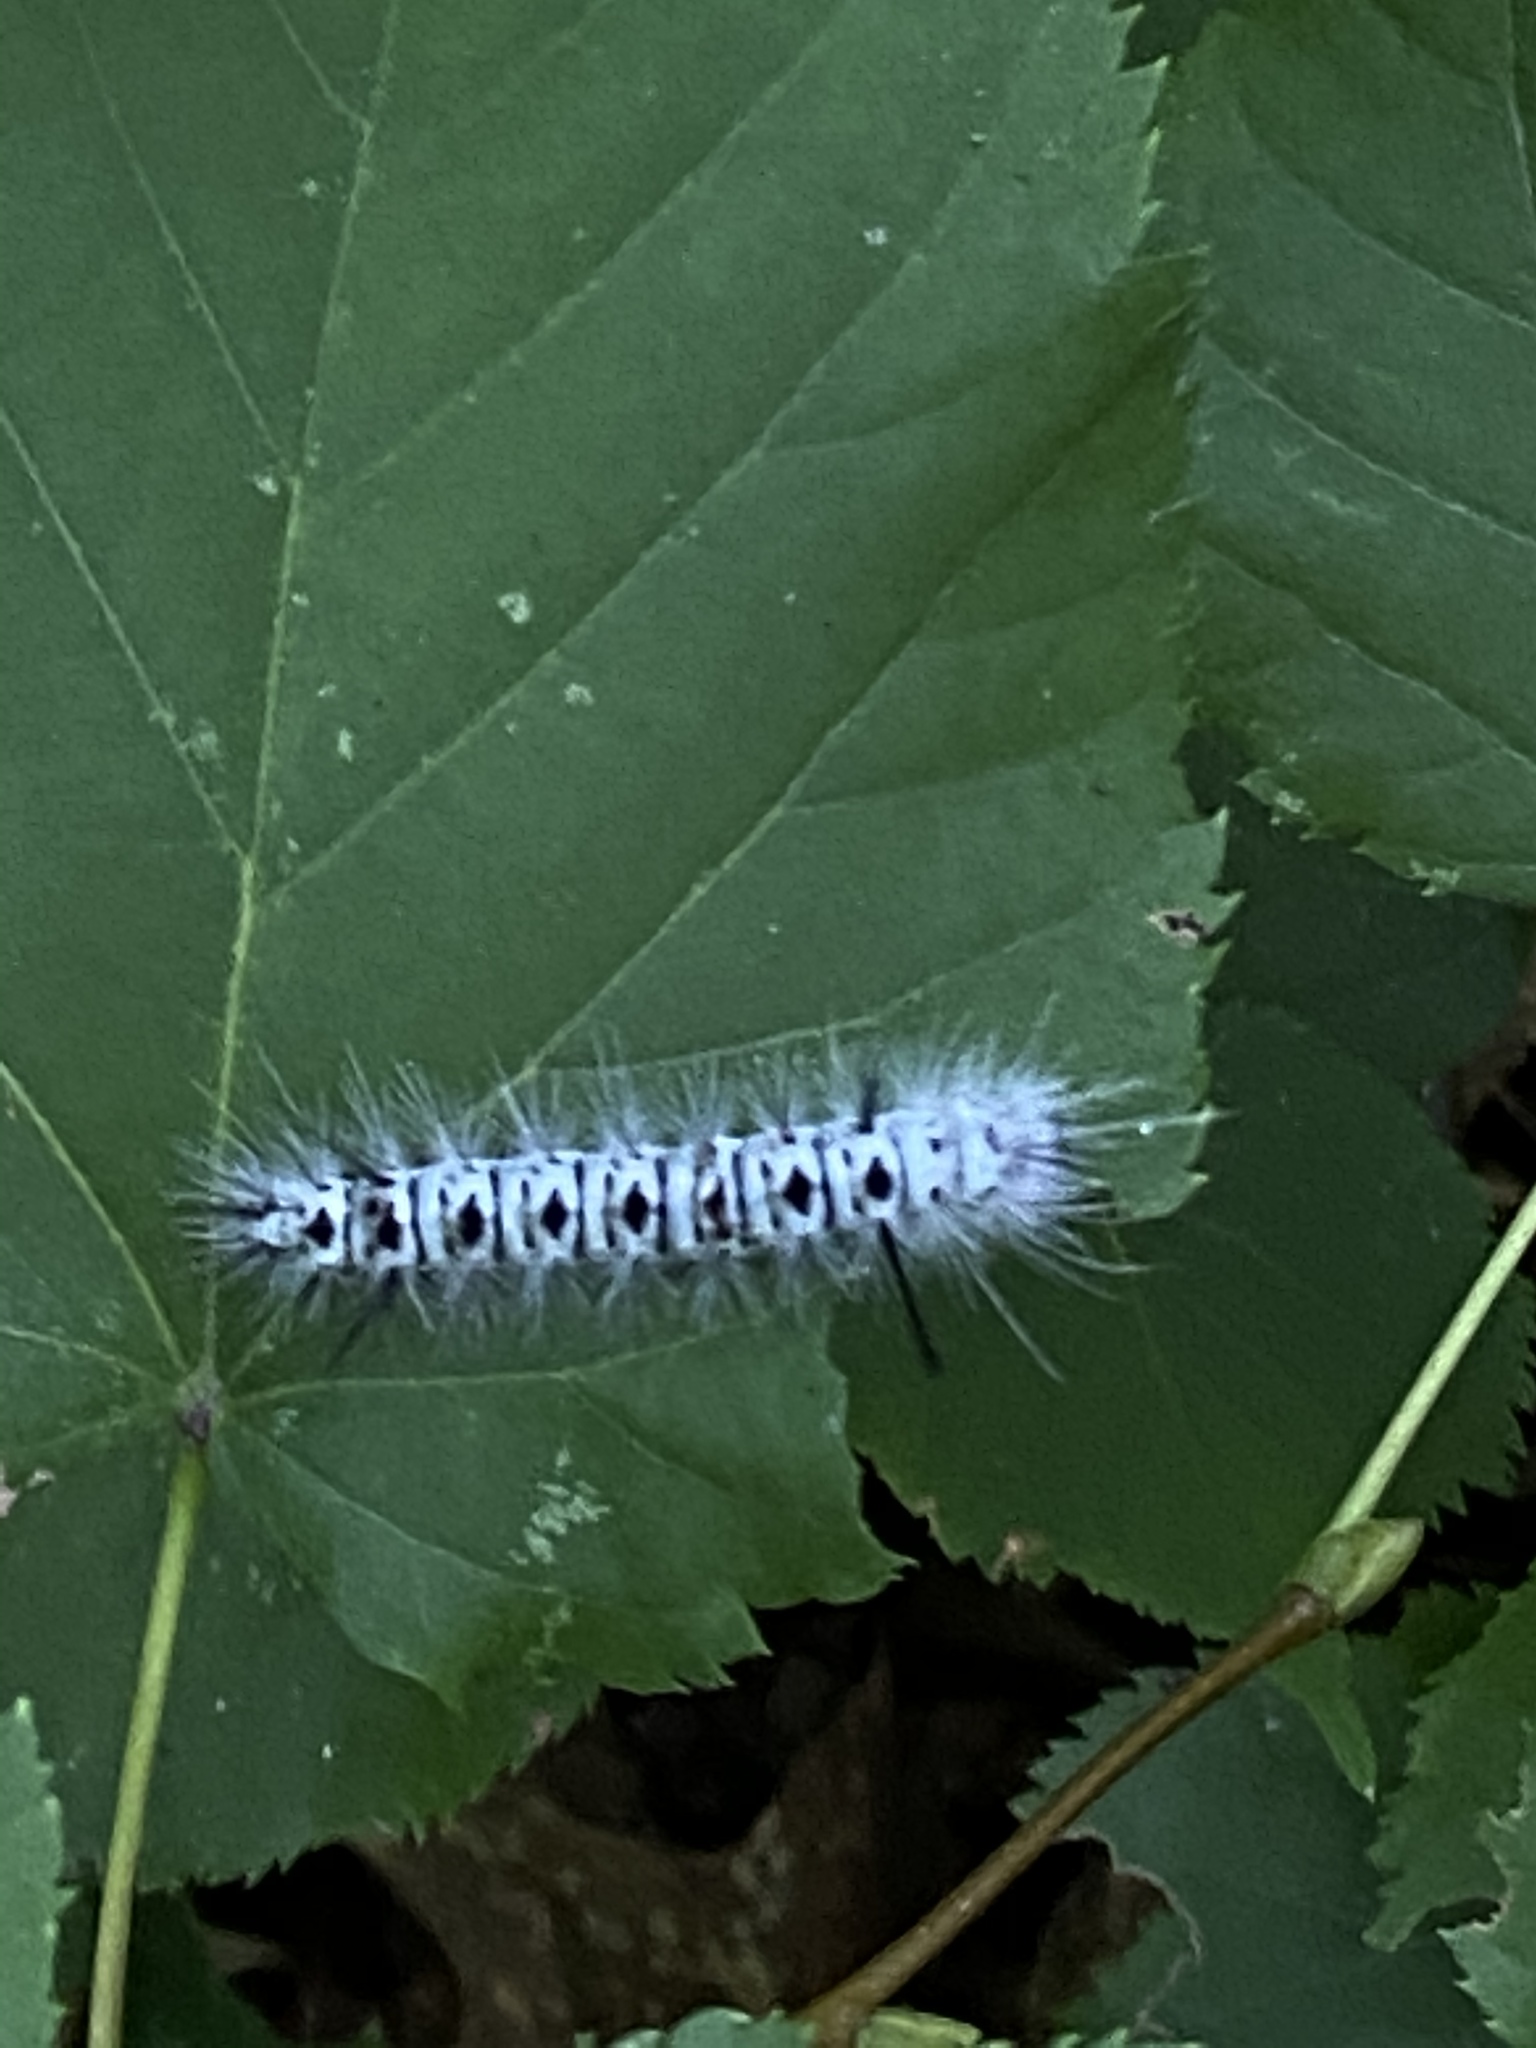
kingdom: Animalia
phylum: Arthropoda
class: Insecta
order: Lepidoptera
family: Erebidae
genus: Lophocampa
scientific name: Lophocampa caryae
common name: Hickory tussock moth
